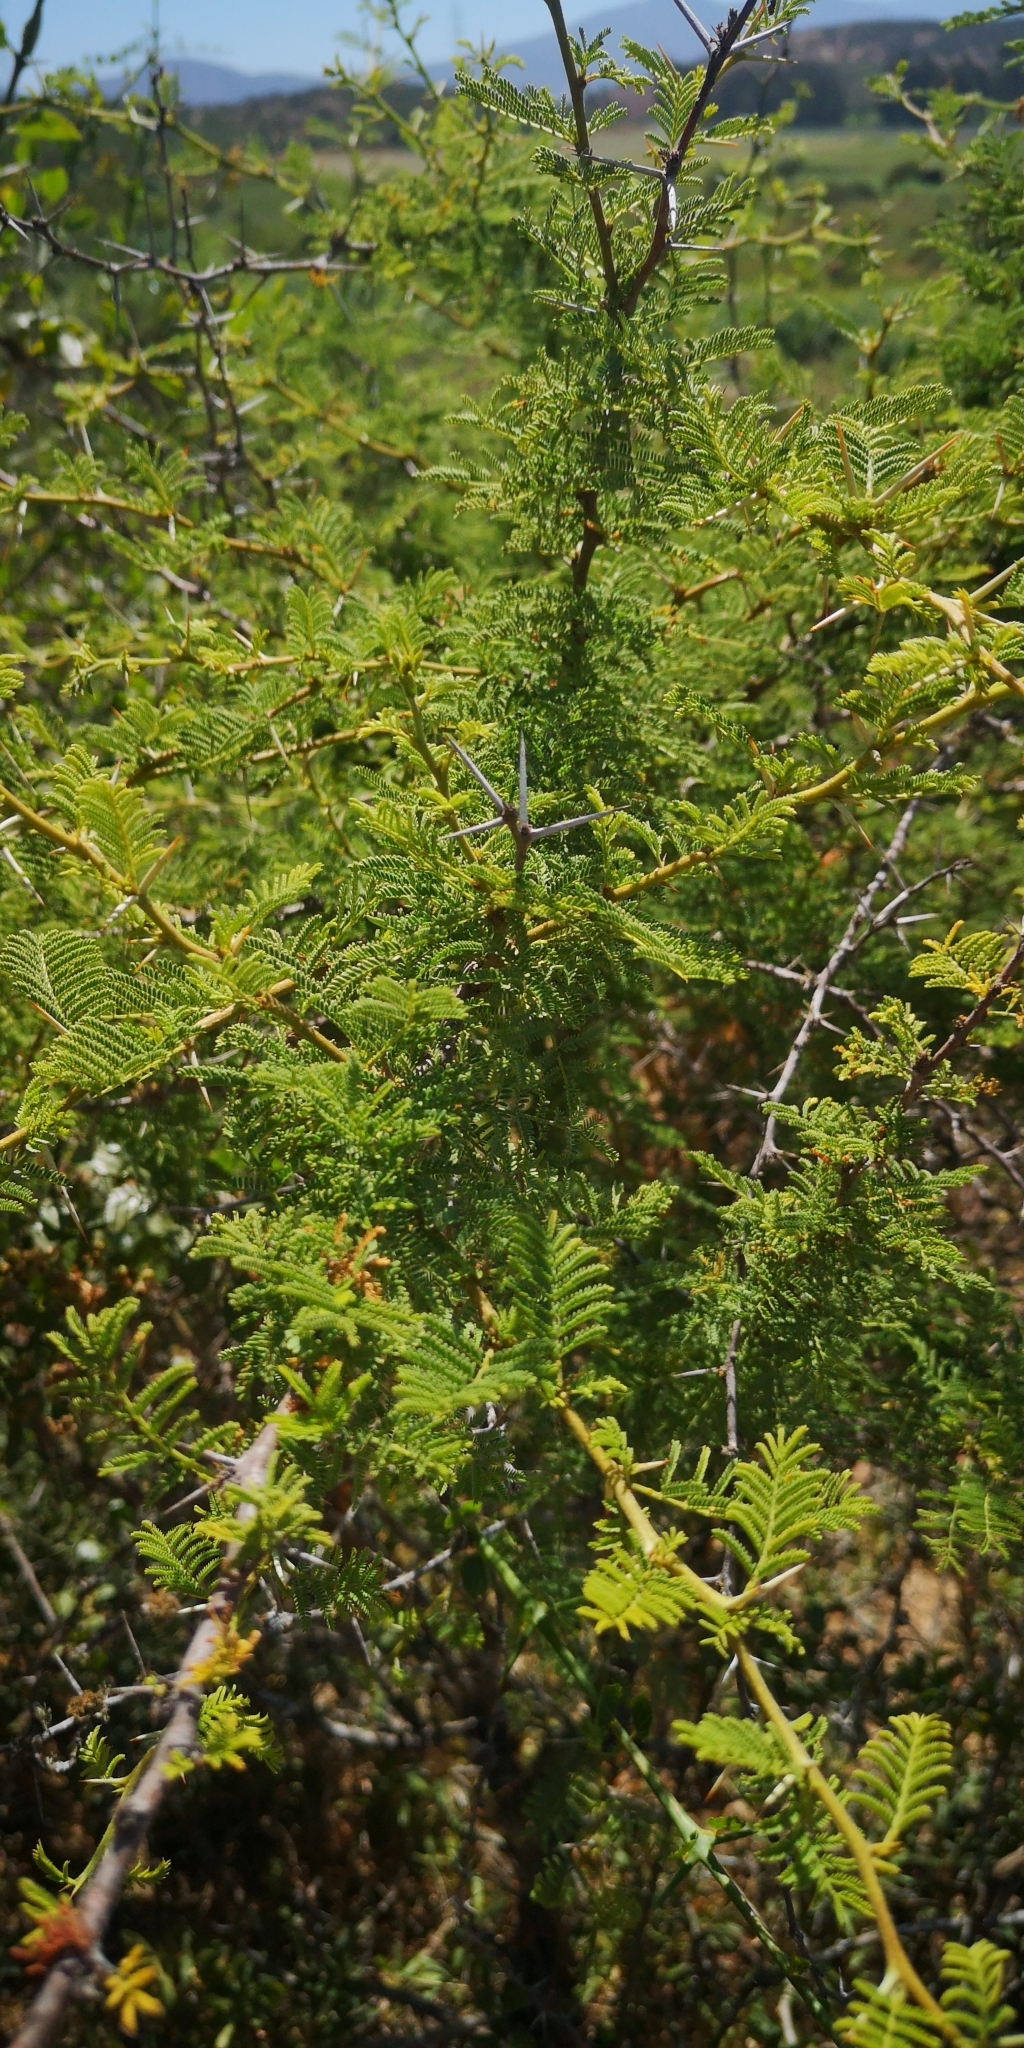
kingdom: Plantae
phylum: Tracheophyta
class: Magnoliopsida
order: Fabales
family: Fabaceae
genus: Vachellia
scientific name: Vachellia caven
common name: Roman cassie
